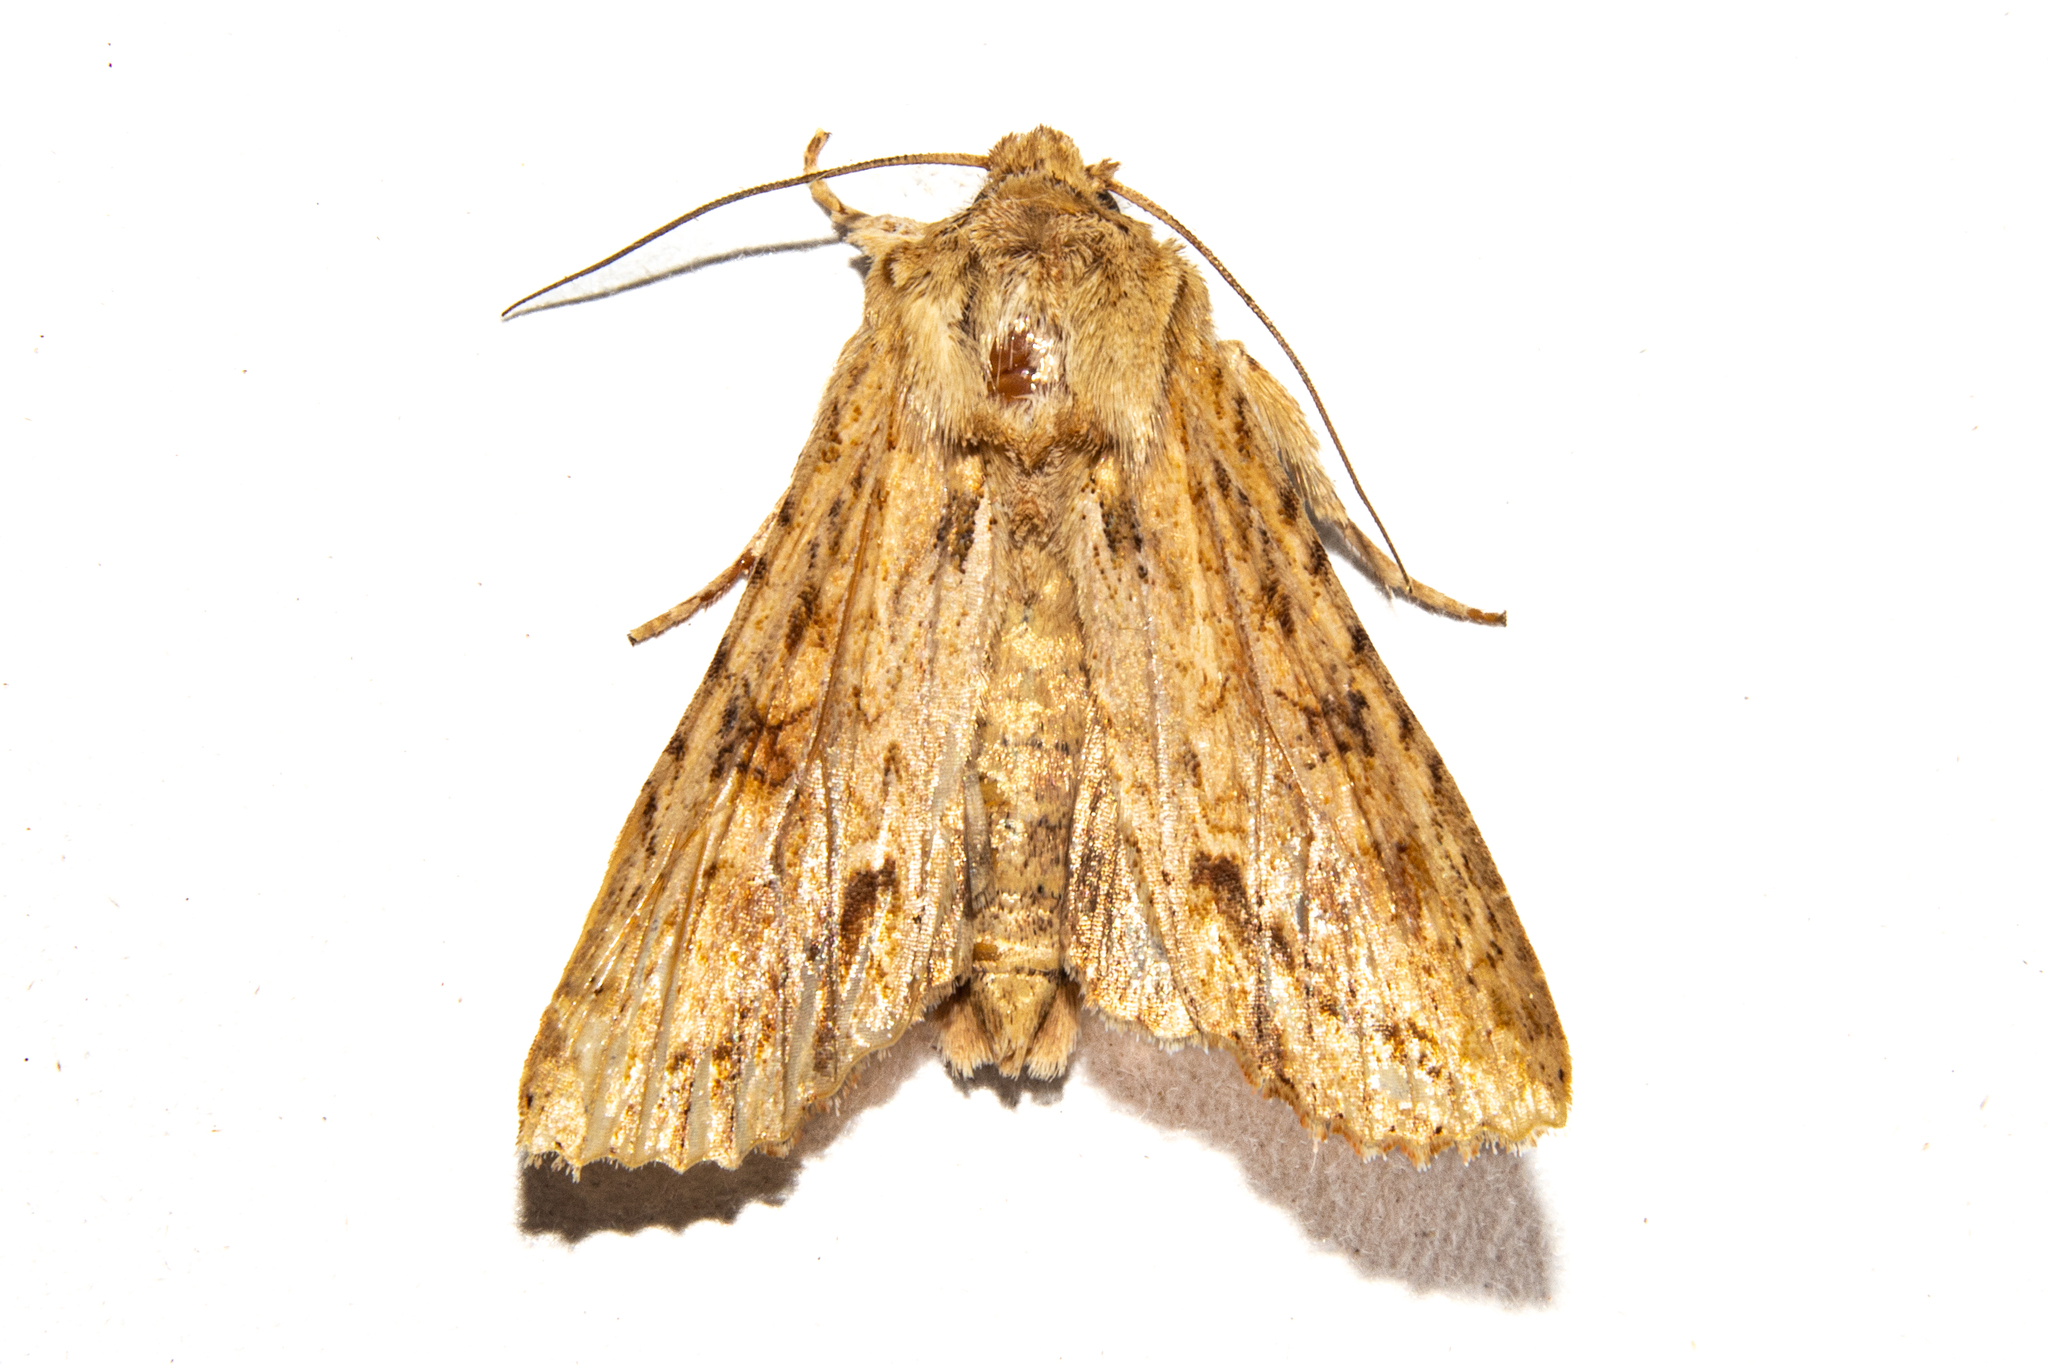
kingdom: Animalia
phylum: Arthropoda
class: Insecta
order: Lepidoptera
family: Noctuidae
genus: Ichneutica
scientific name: Ichneutica mollis
